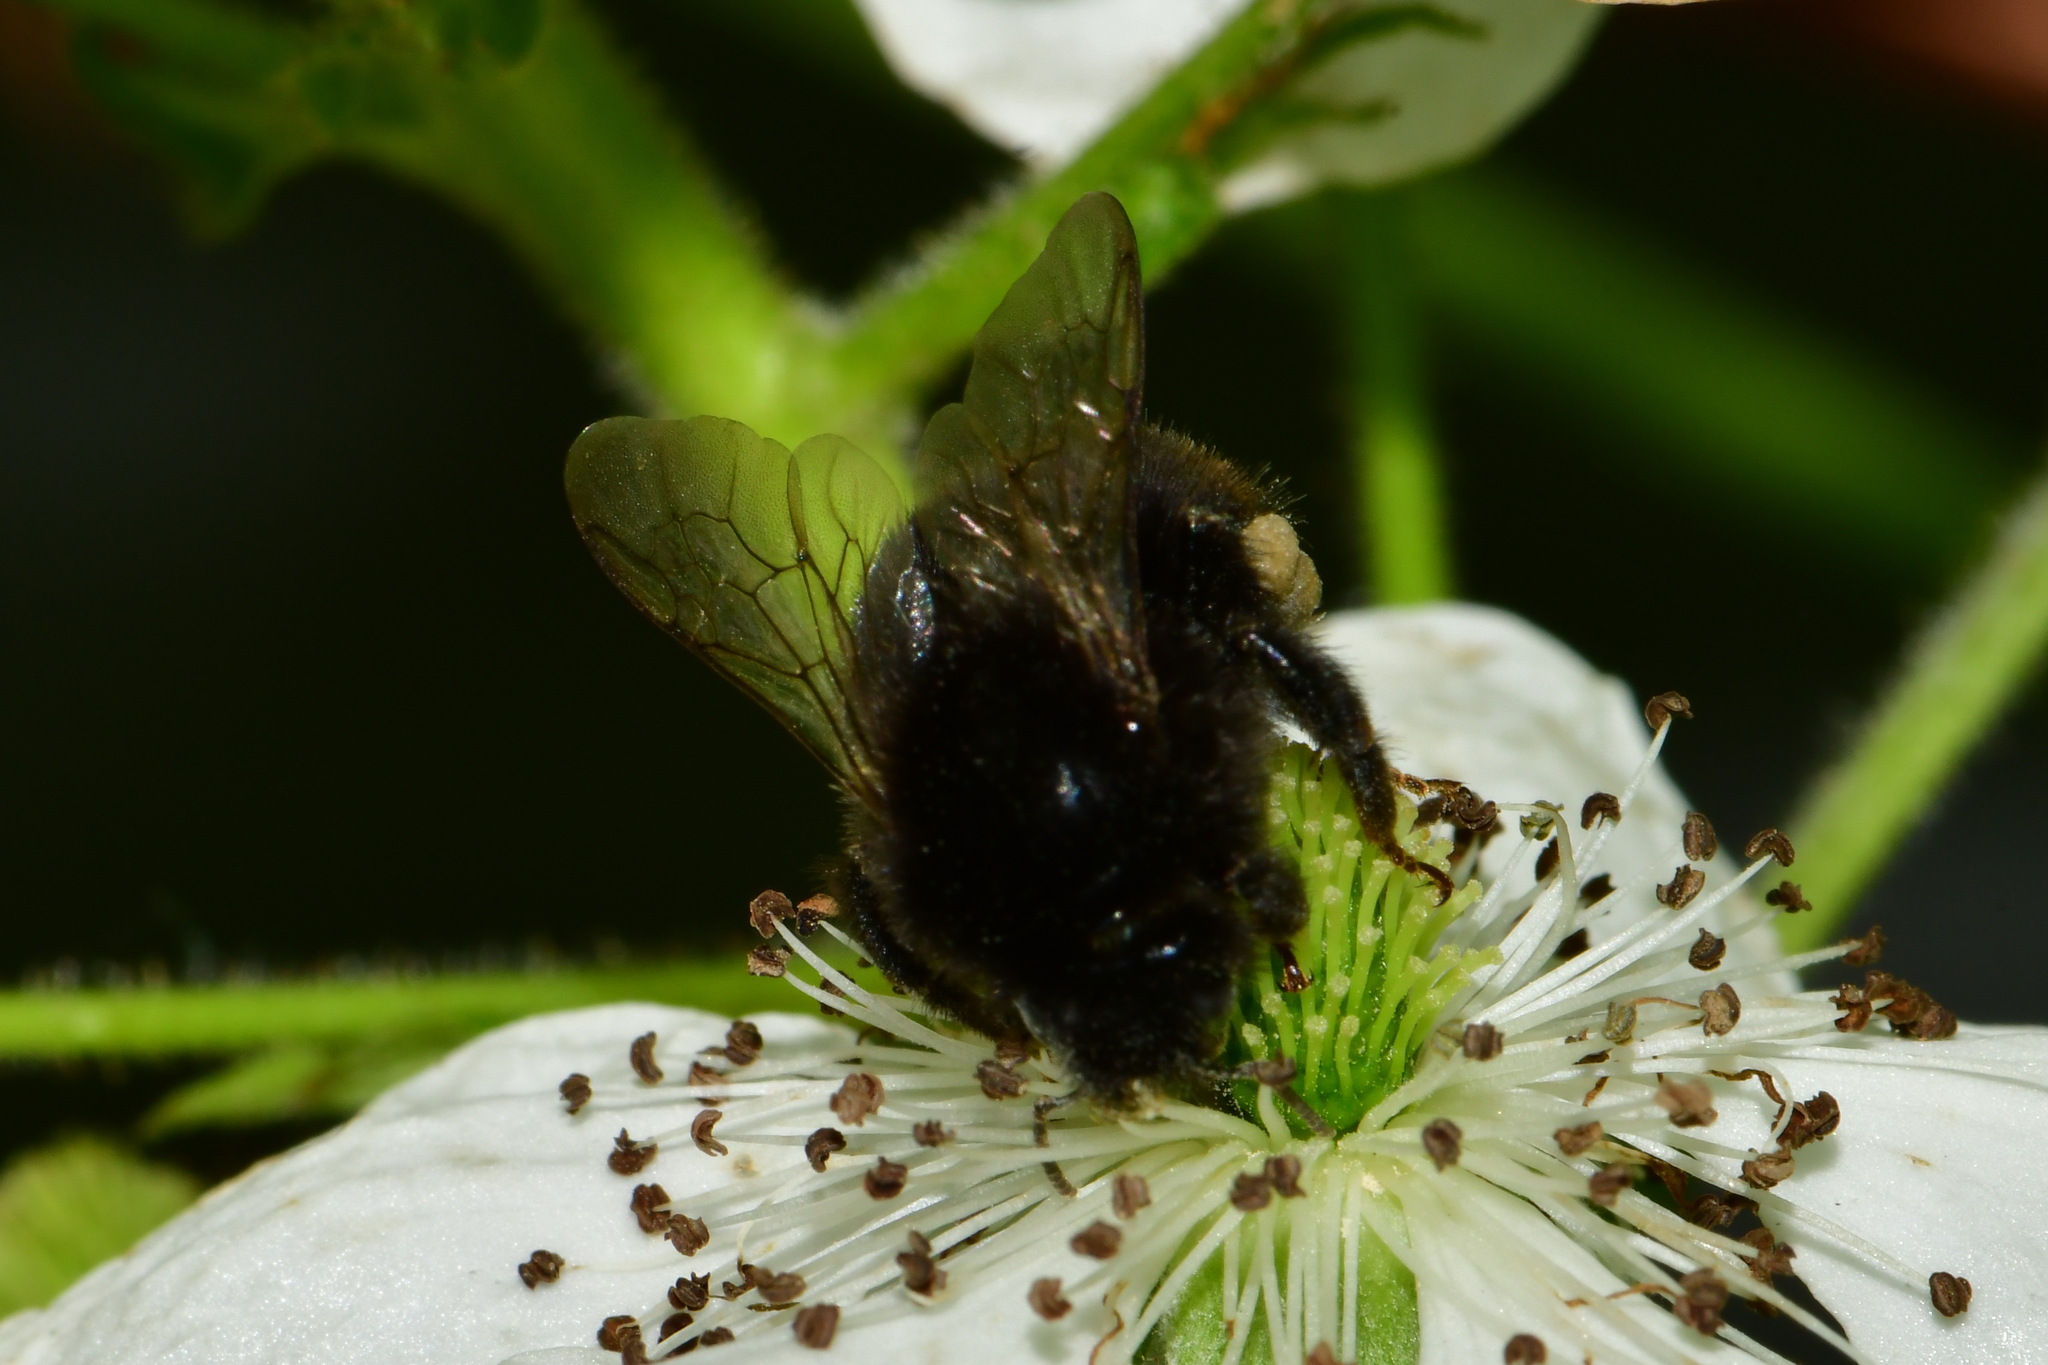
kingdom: Animalia
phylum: Arthropoda
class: Insecta
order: Hymenoptera
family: Apidae
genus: Bombus
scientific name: Bombus lapidarius
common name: Large red-tailed humble-bee
